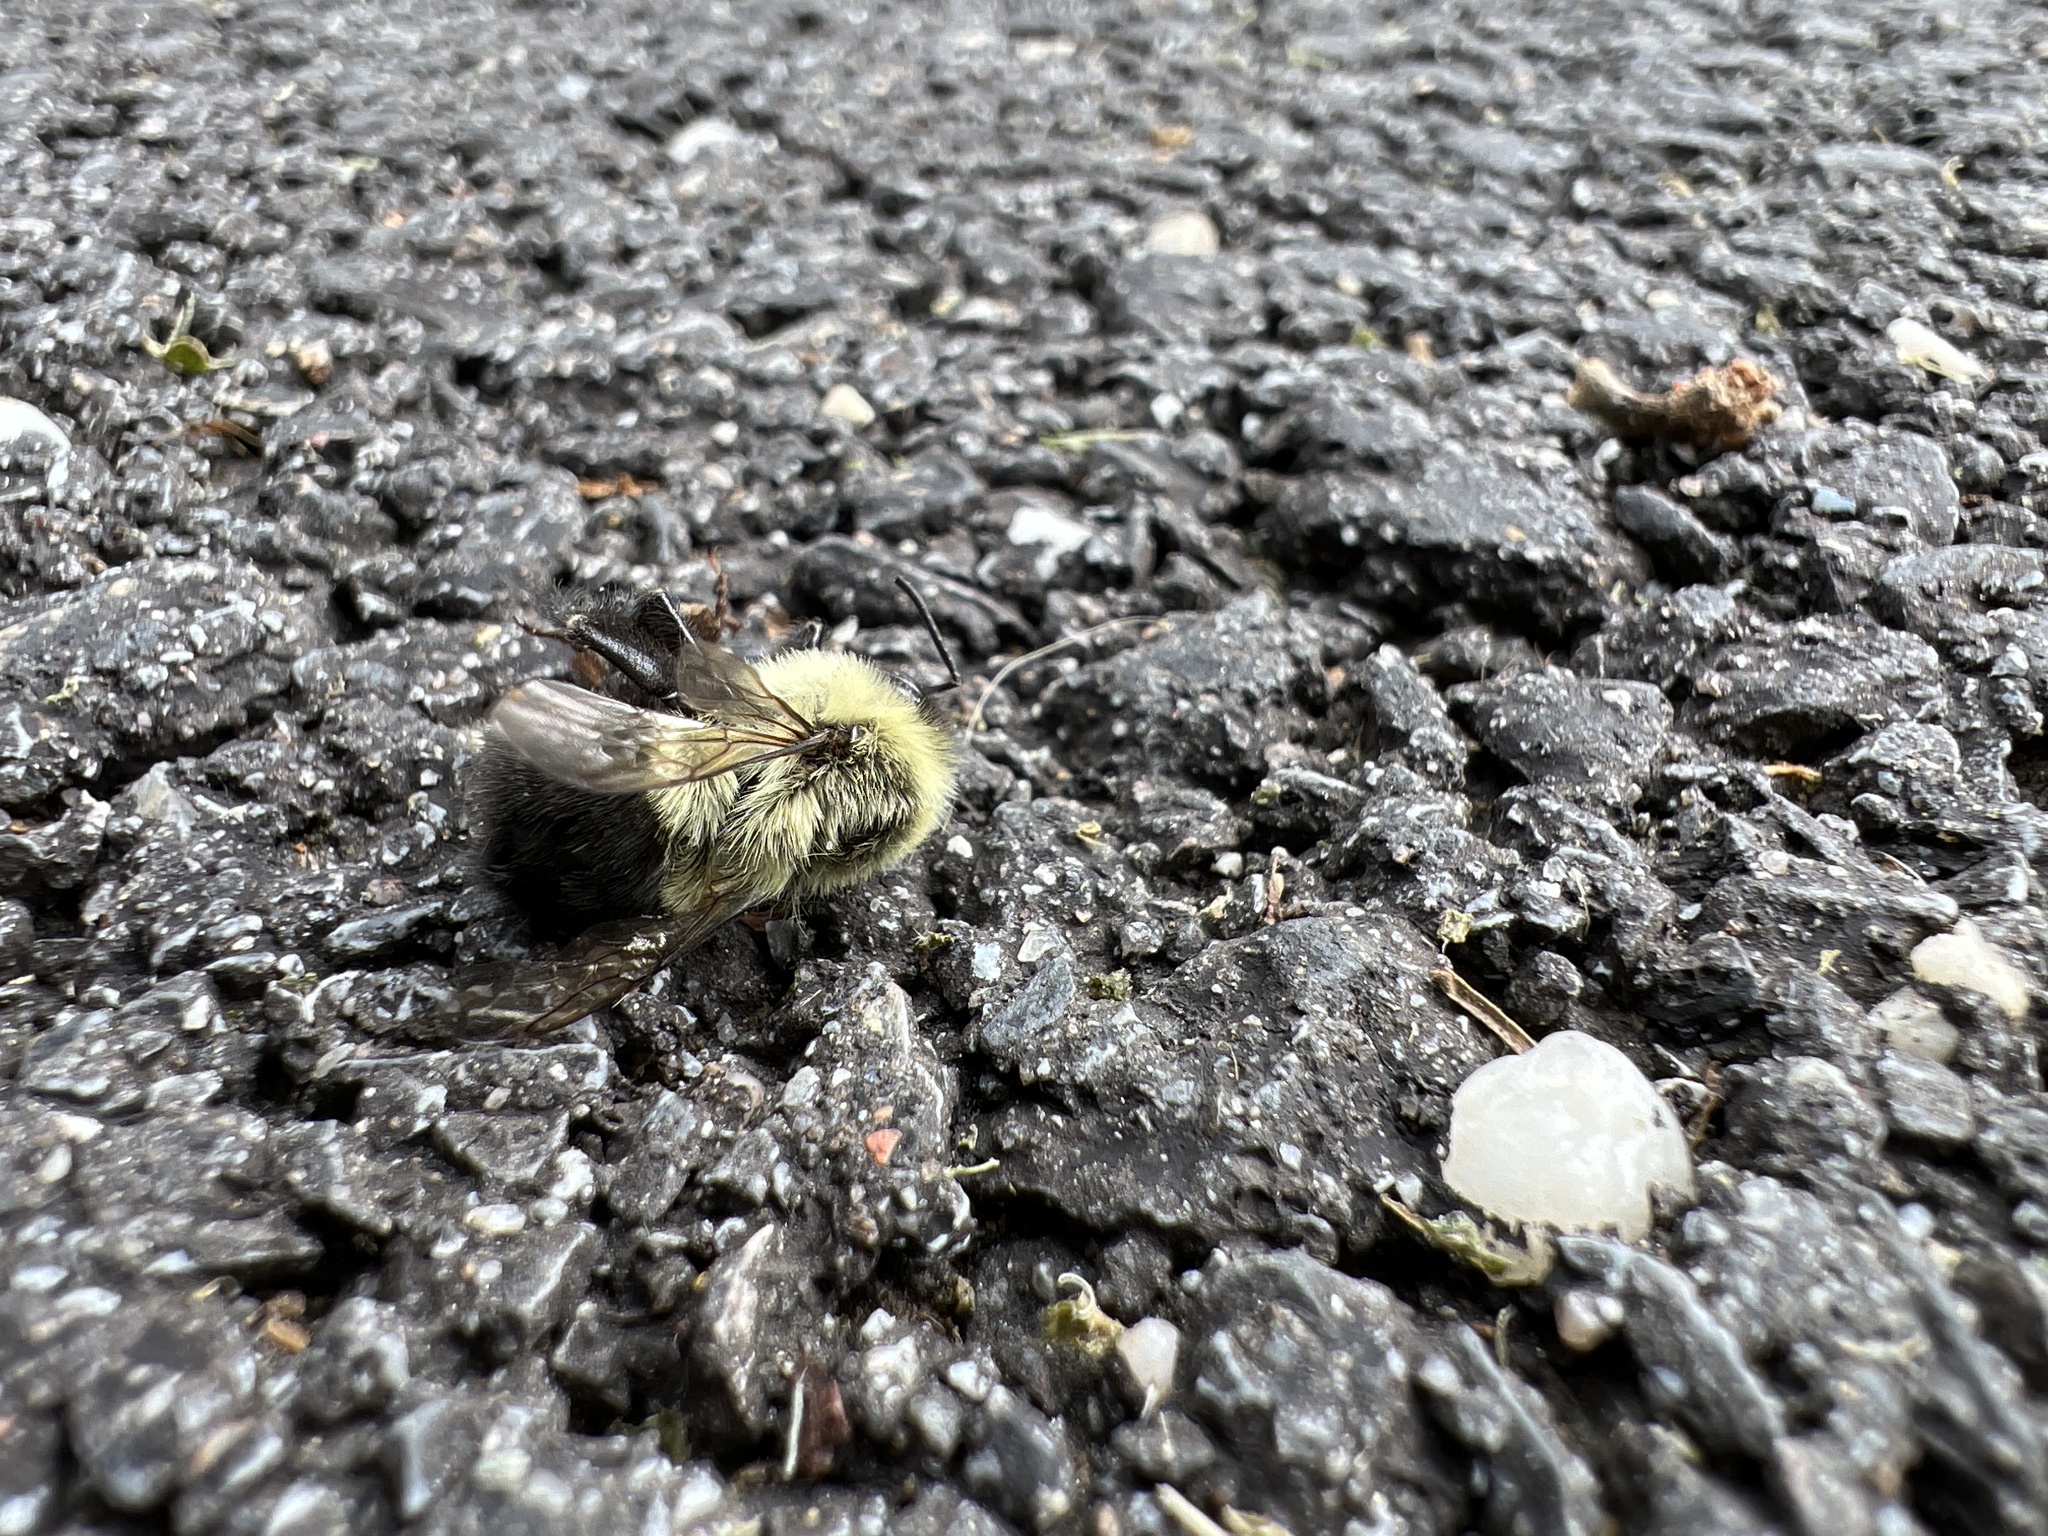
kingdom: Animalia
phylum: Arthropoda
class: Insecta
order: Hymenoptera
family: Apidae
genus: Bombus
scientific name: Bombus impatiens
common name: Common eastern bumble bee
